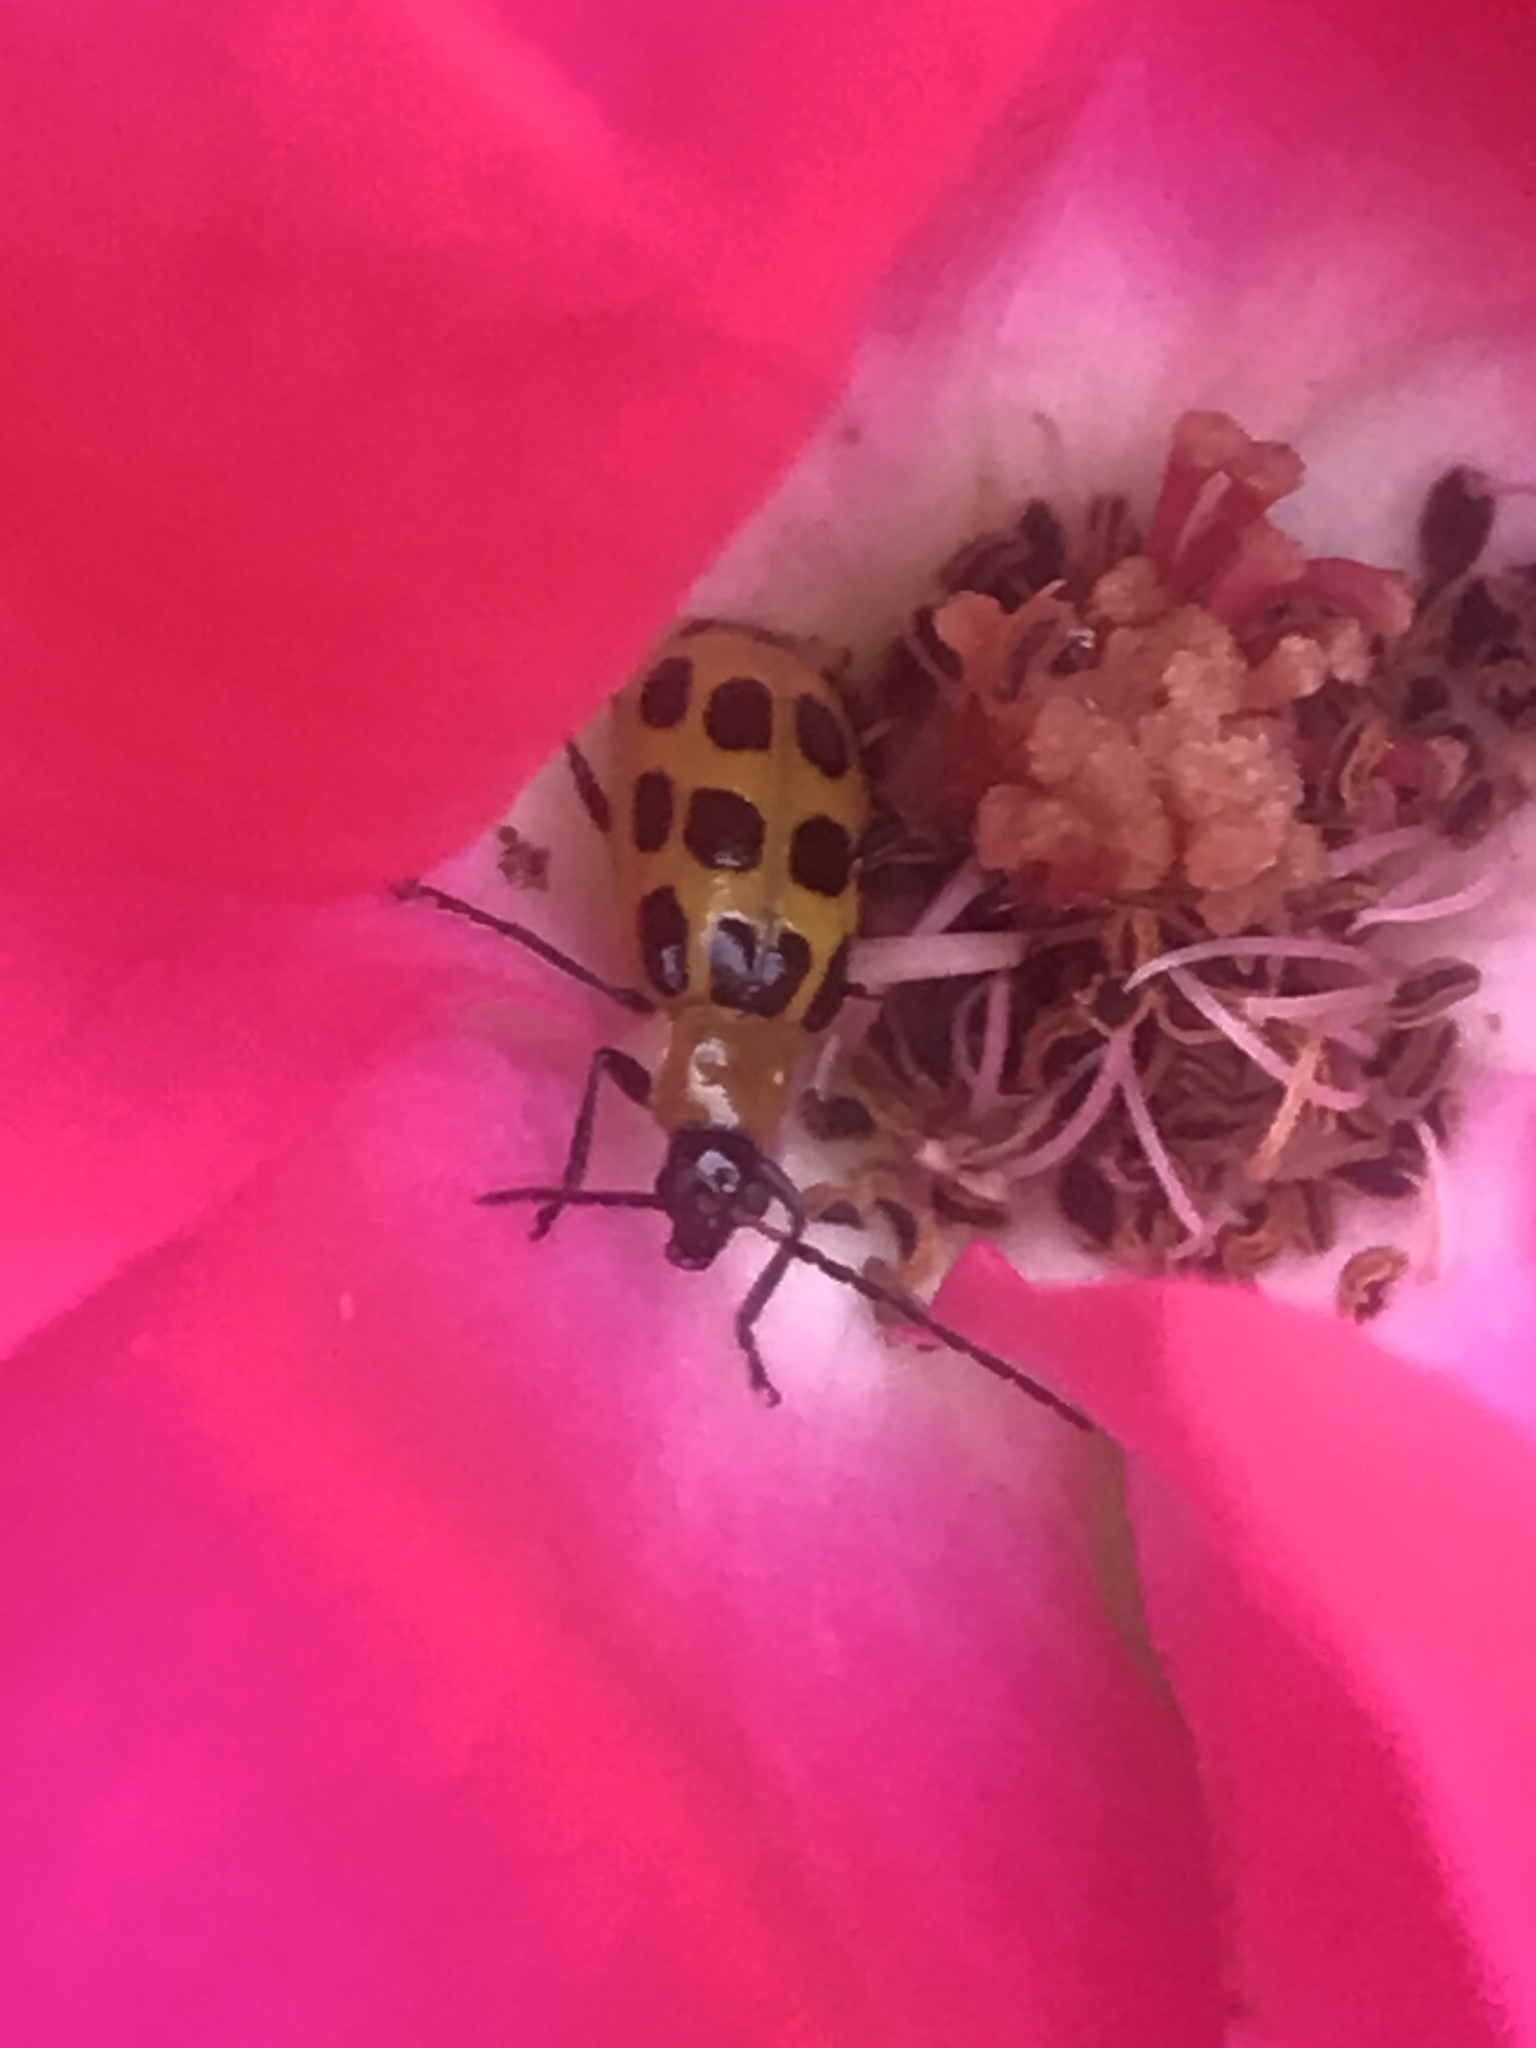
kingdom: Animalia
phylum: Arthropoda
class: Insecta
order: Coleoptera
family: Chrysomelidae
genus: Diabrotica
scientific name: Diabrotica undecimpunctata
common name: Spotted cucumber beetle
